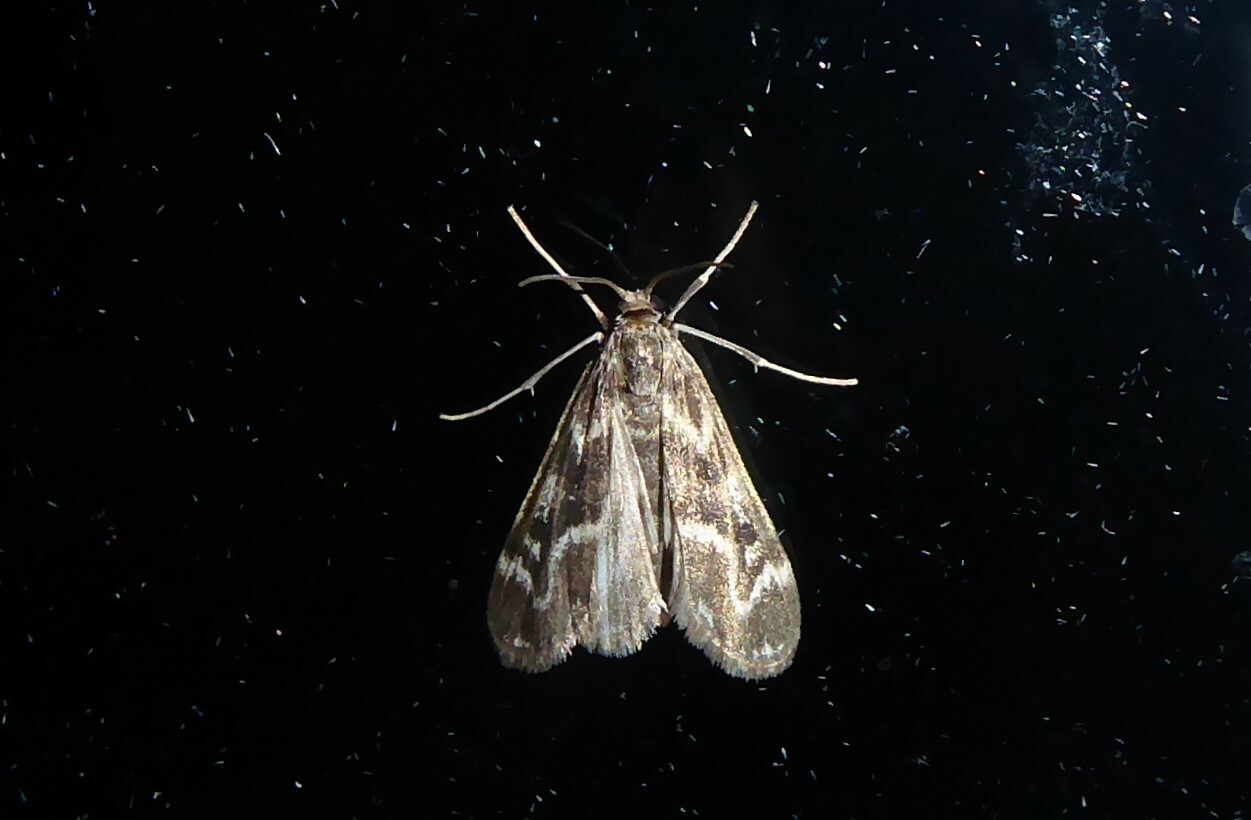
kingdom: Animalia
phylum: Arthropoda
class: Insecta
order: Lepidoptera
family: Crambidae
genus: Hygraula
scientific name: Hygraula nitens
